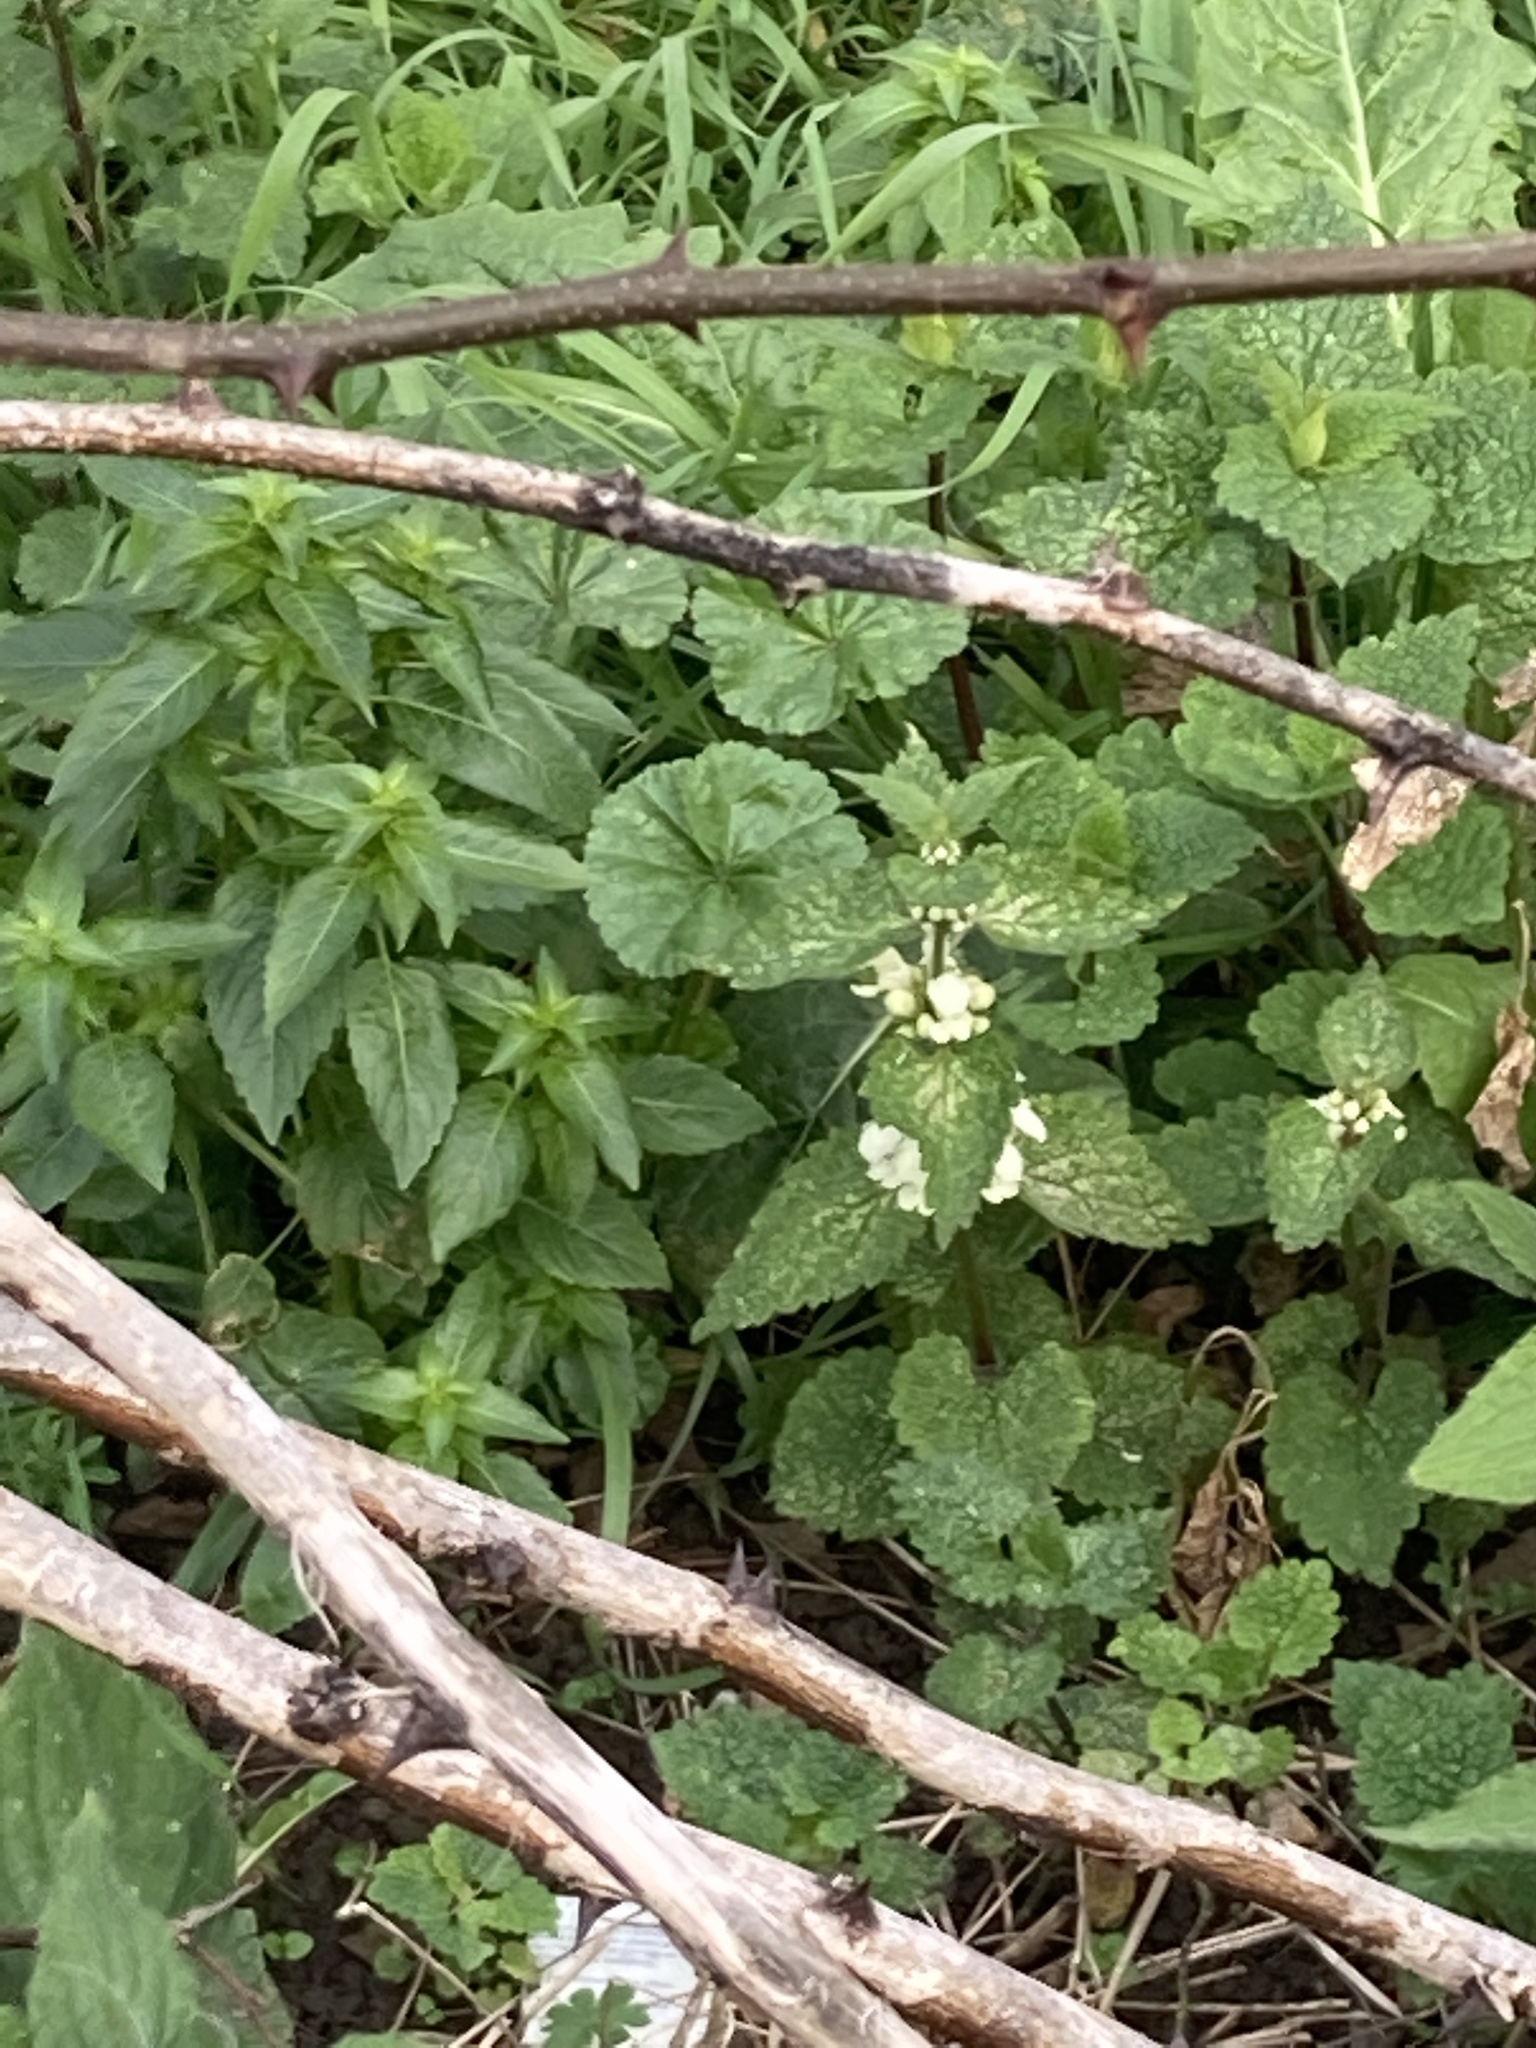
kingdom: Plantae
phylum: Tracheophyta
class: Magnoliopsida
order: Lamiales
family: Lamiaceae
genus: Lamium
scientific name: Lamium album
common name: White dead-nettle
